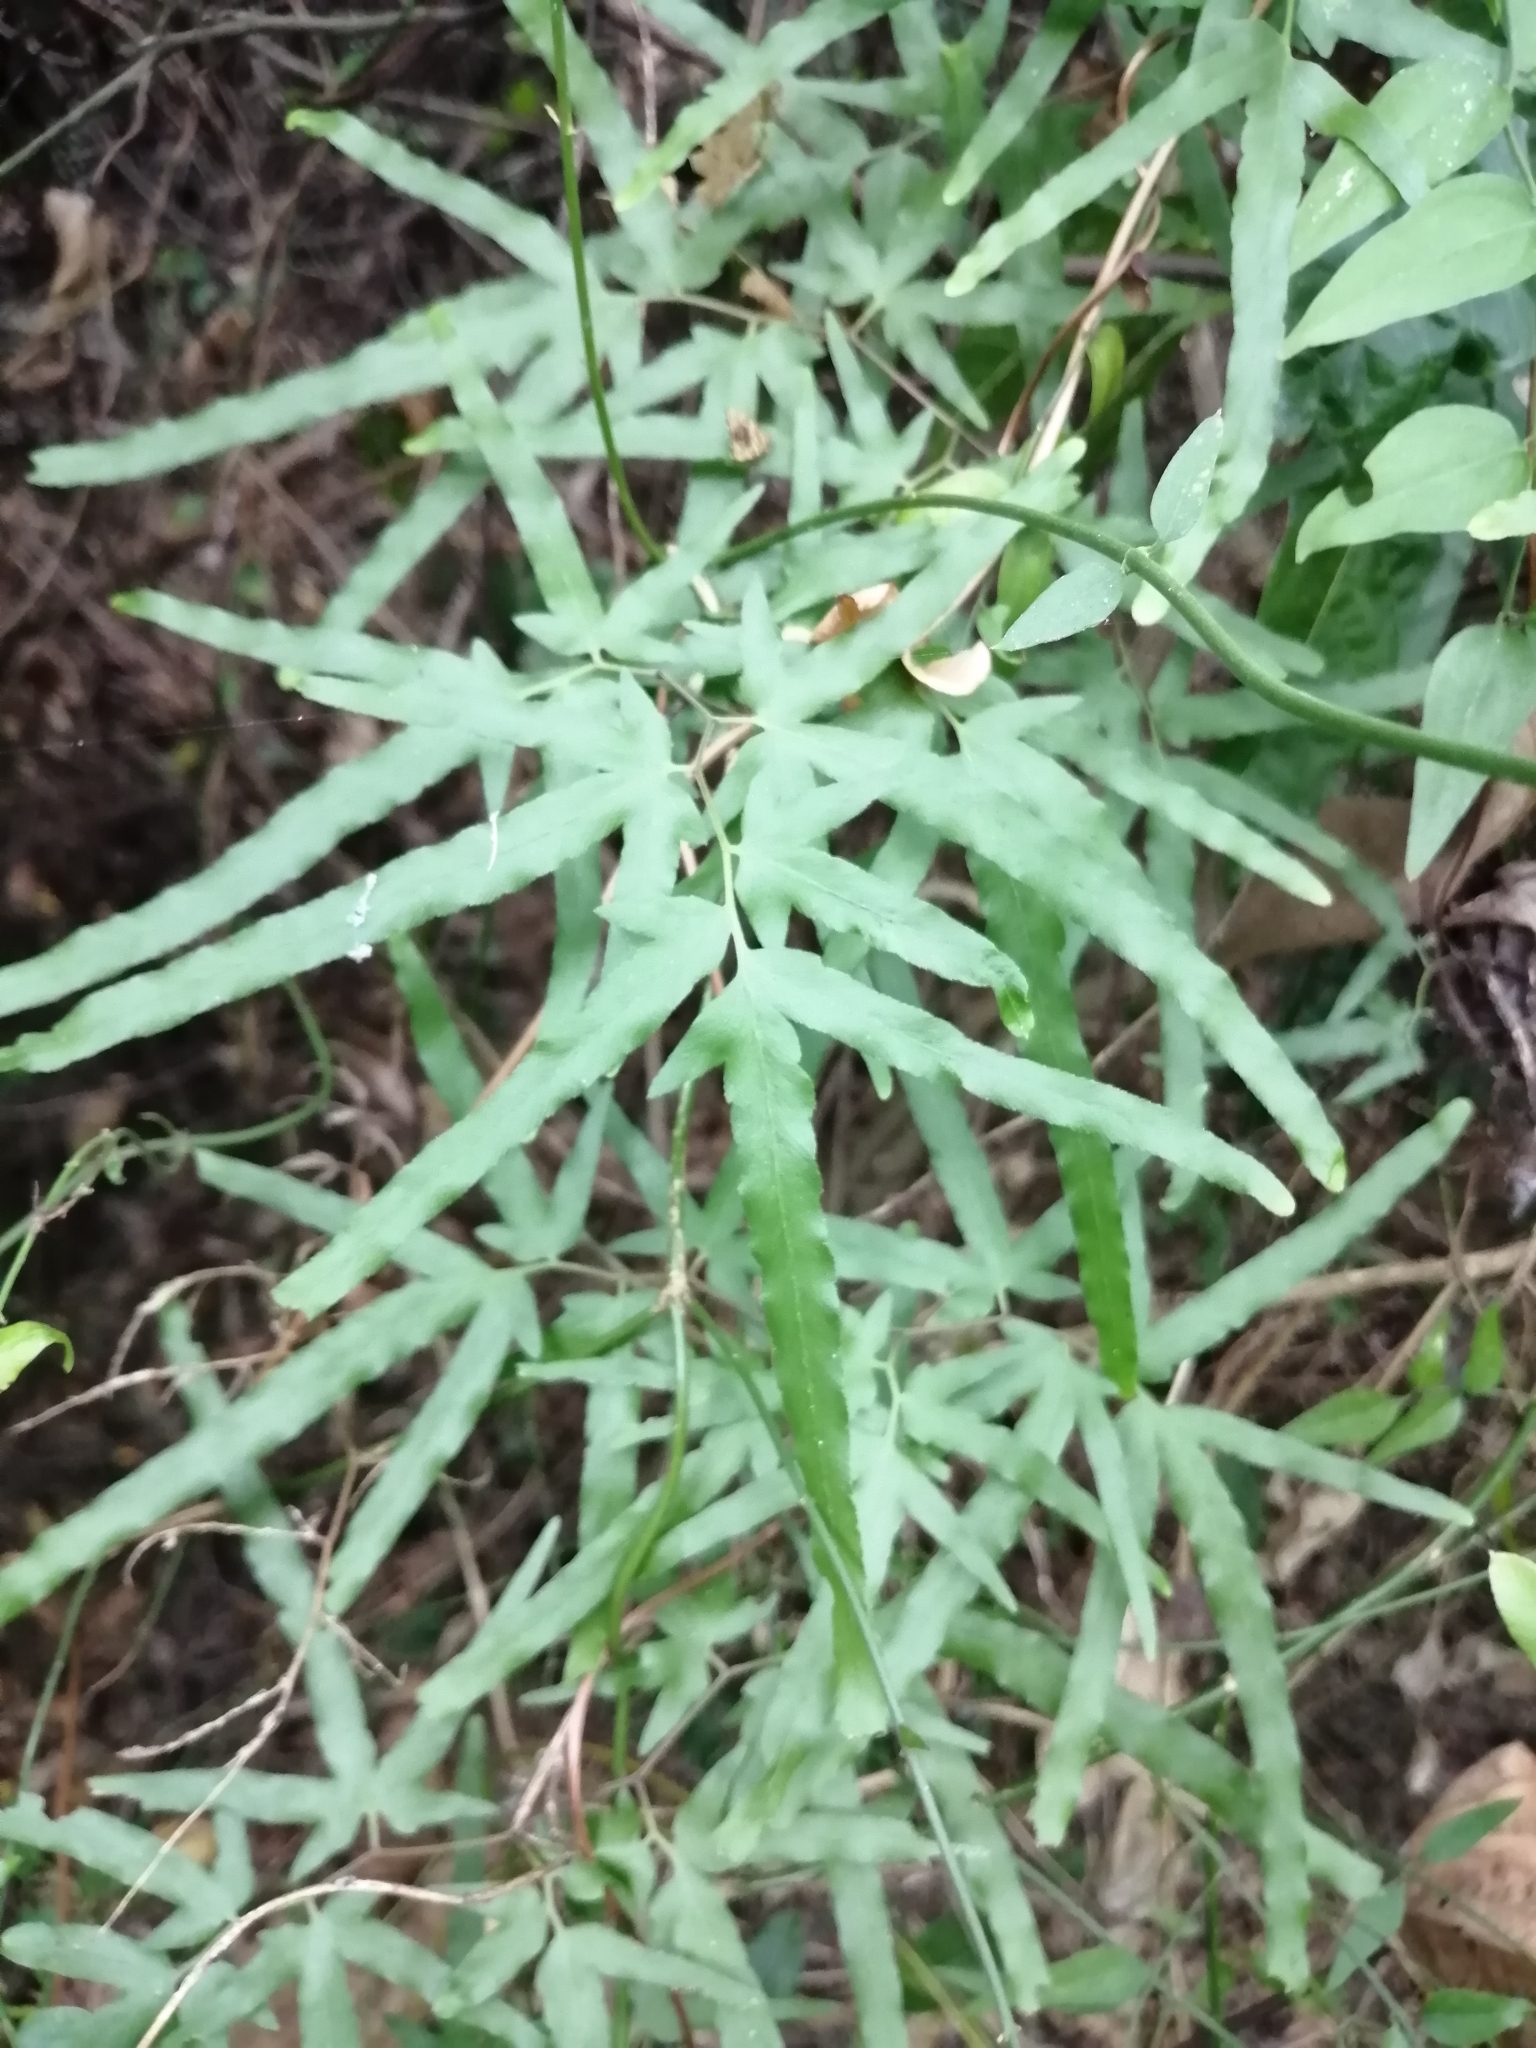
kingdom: Plantae
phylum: Tracheophyta
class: Polypodiopsida
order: Schizaeales
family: Lygodiaceae
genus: Lygodium
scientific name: Lygodium japonicum
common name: Japanese climbing fern
